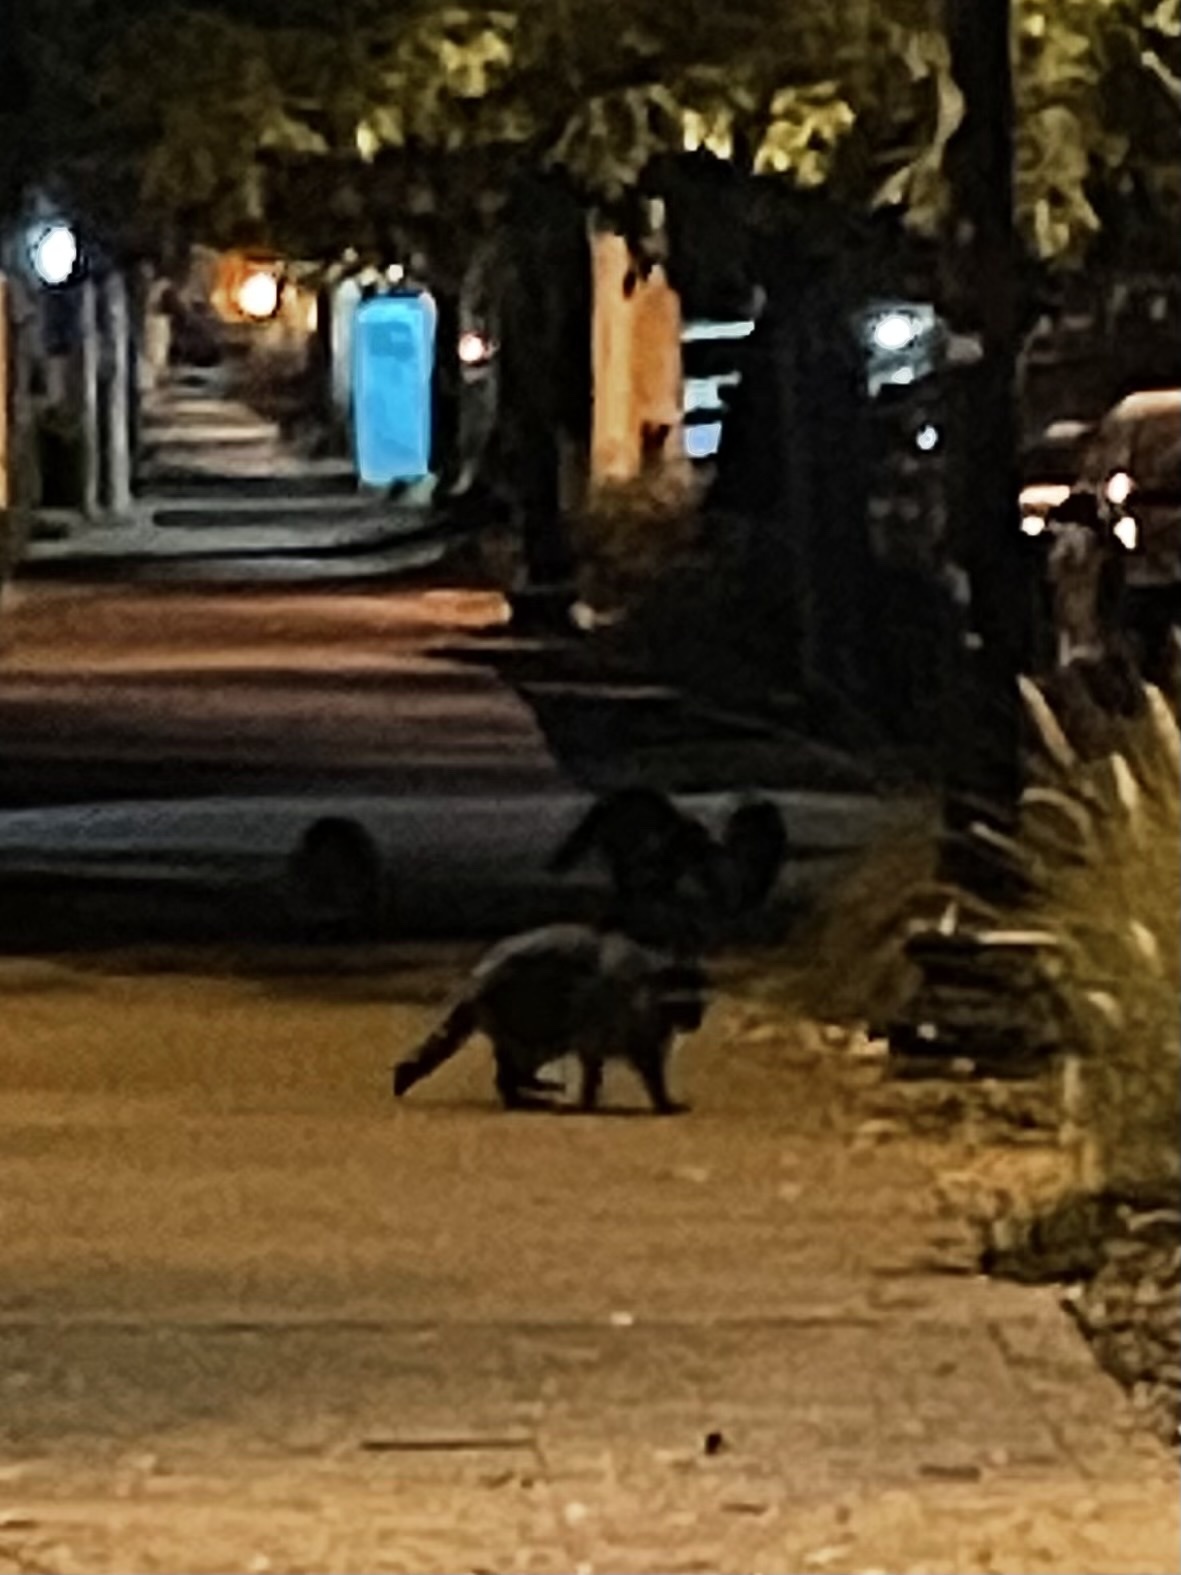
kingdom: Animalia
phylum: Chordata
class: Mammalia
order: Carnivora
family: Procyonidae
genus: Procyon
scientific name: Procyon lotor
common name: Raccoon
